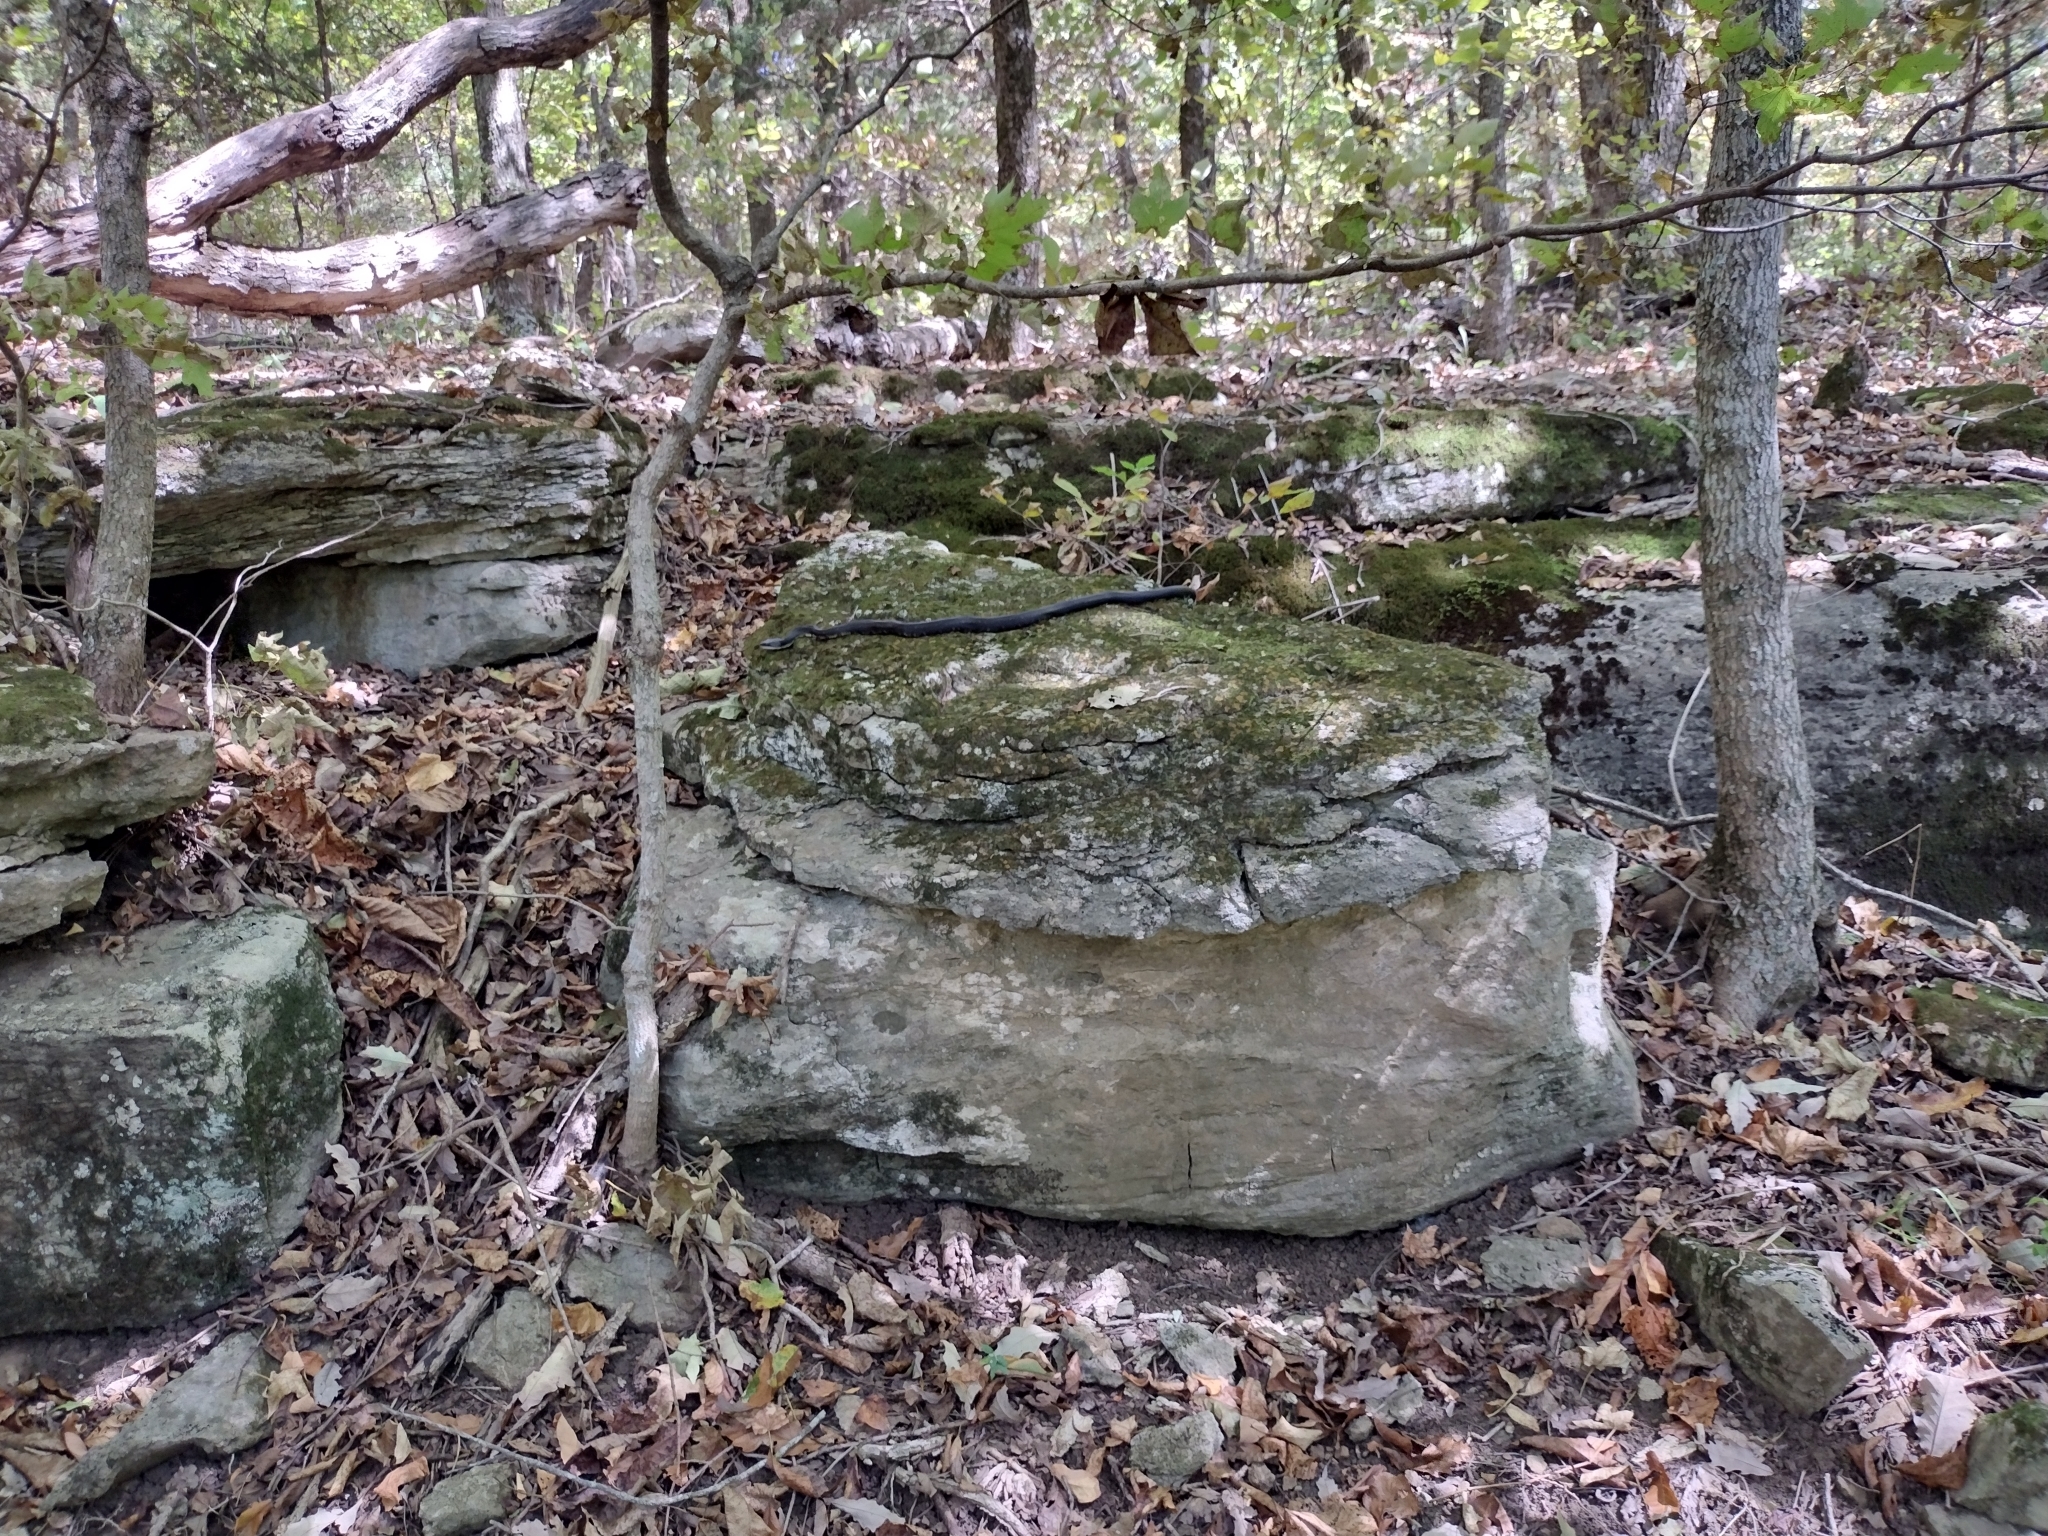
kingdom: Animalia
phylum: Chordata
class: Squamata
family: Colubridae
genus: Pantherophis
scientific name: Pantherophis obsoletus
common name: Black rat snake
